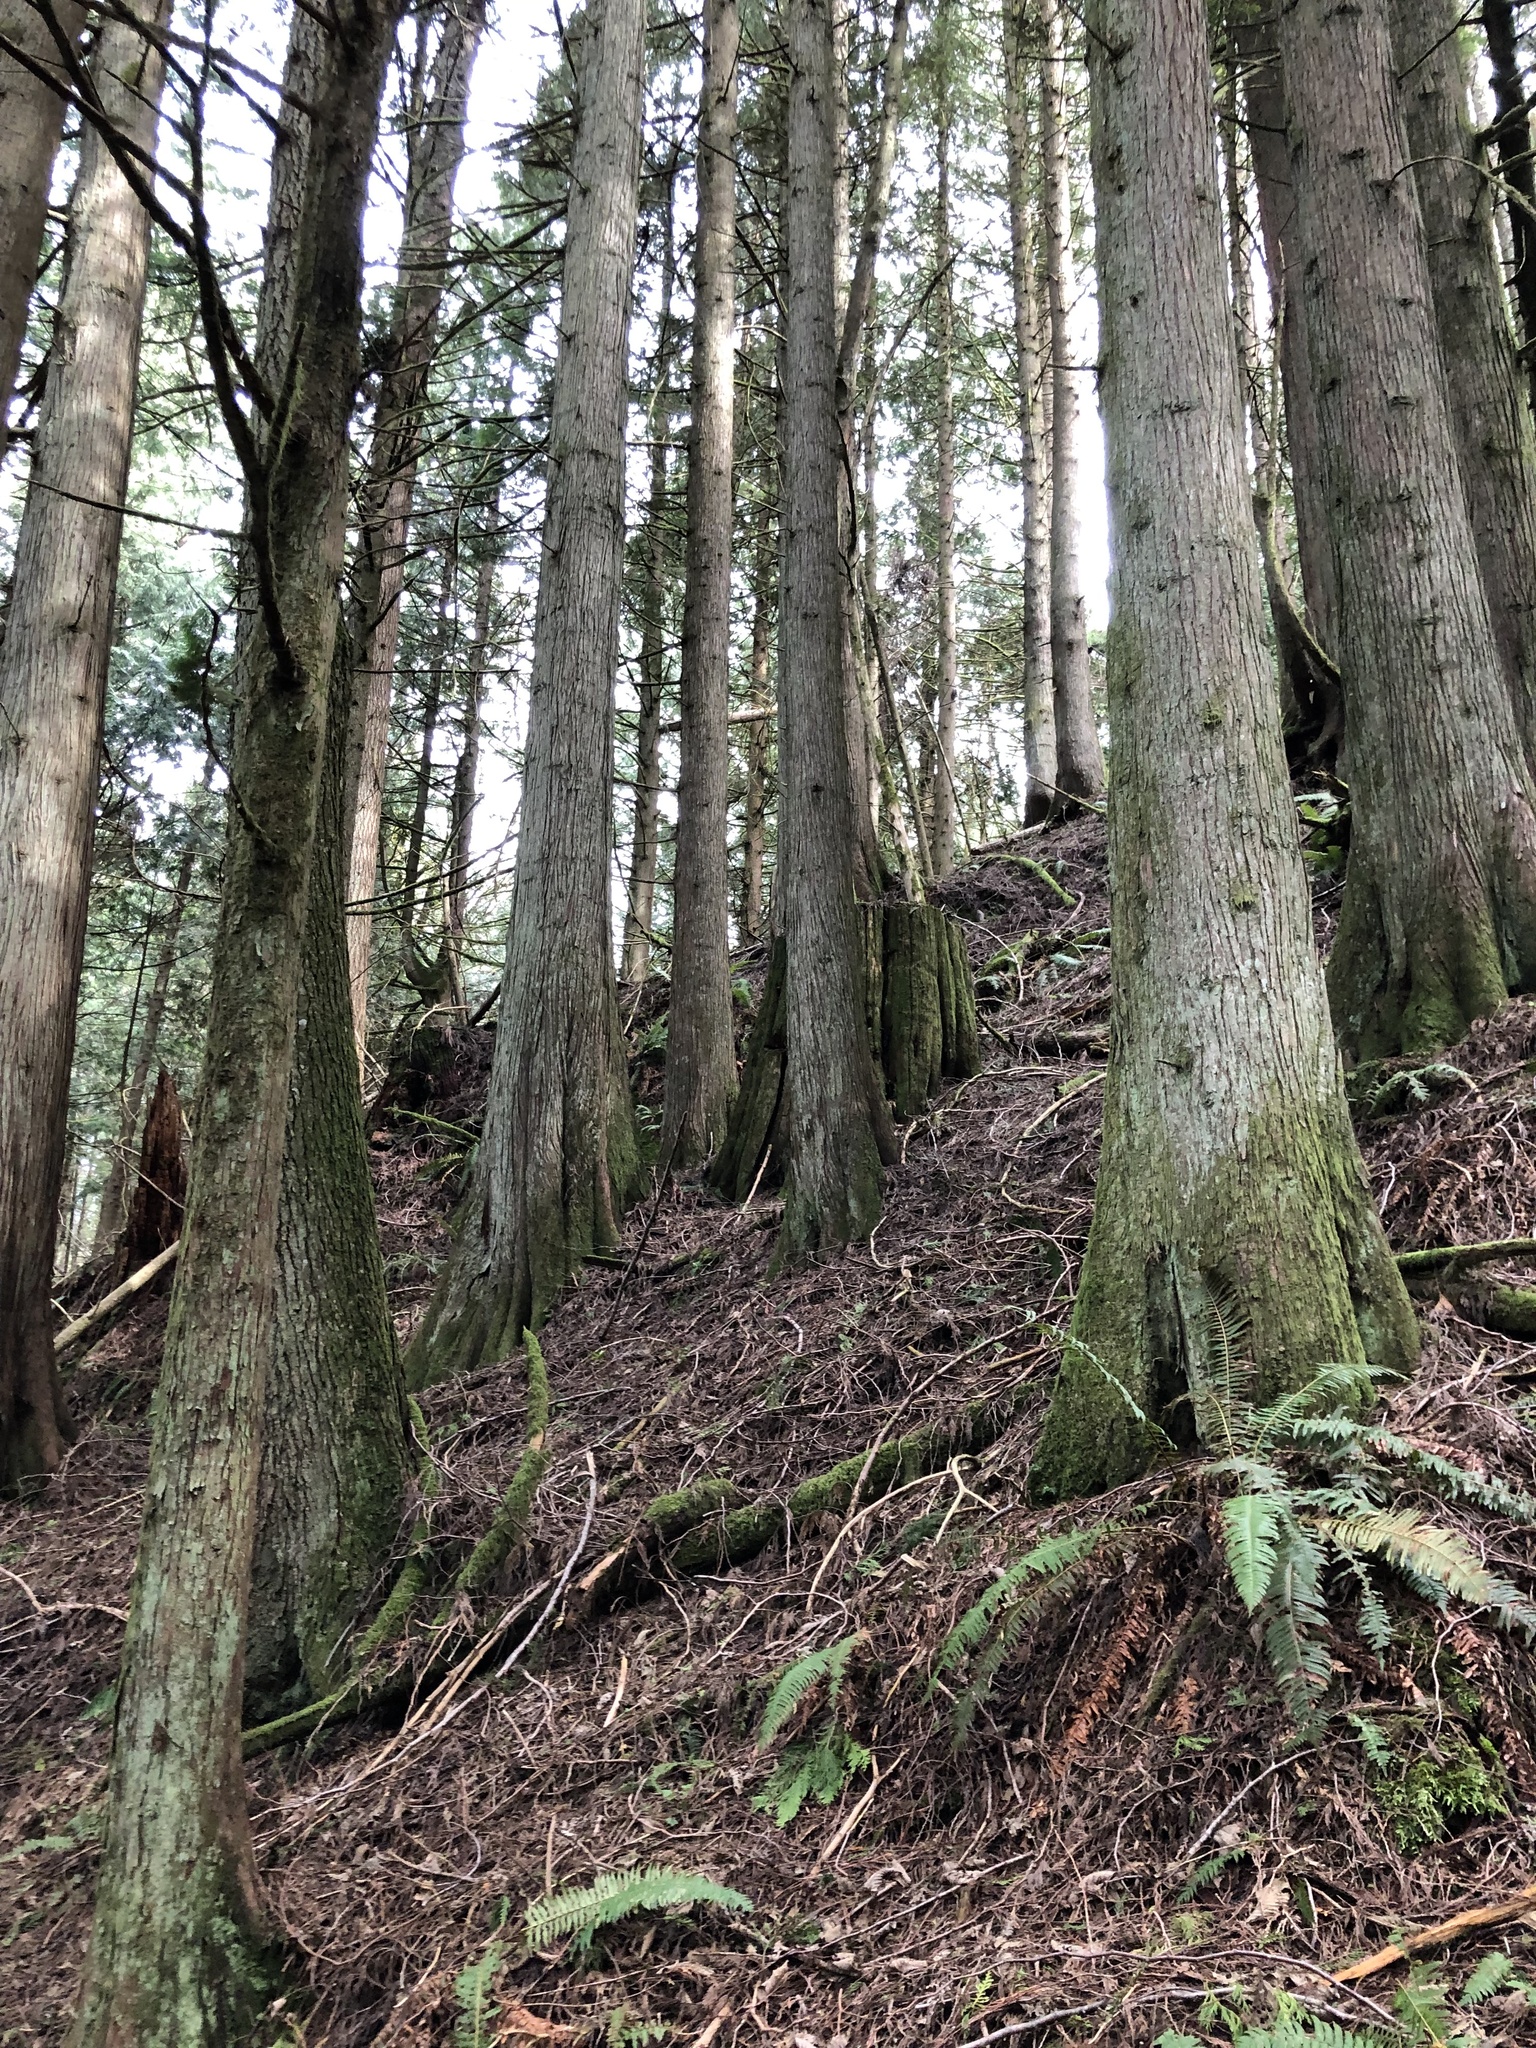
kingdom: Plantae
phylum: Tracheophyta
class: Pinopsida
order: Pinales
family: Cupressaceae
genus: Thuja
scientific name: Thuja plicata
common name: Western red-cedar
